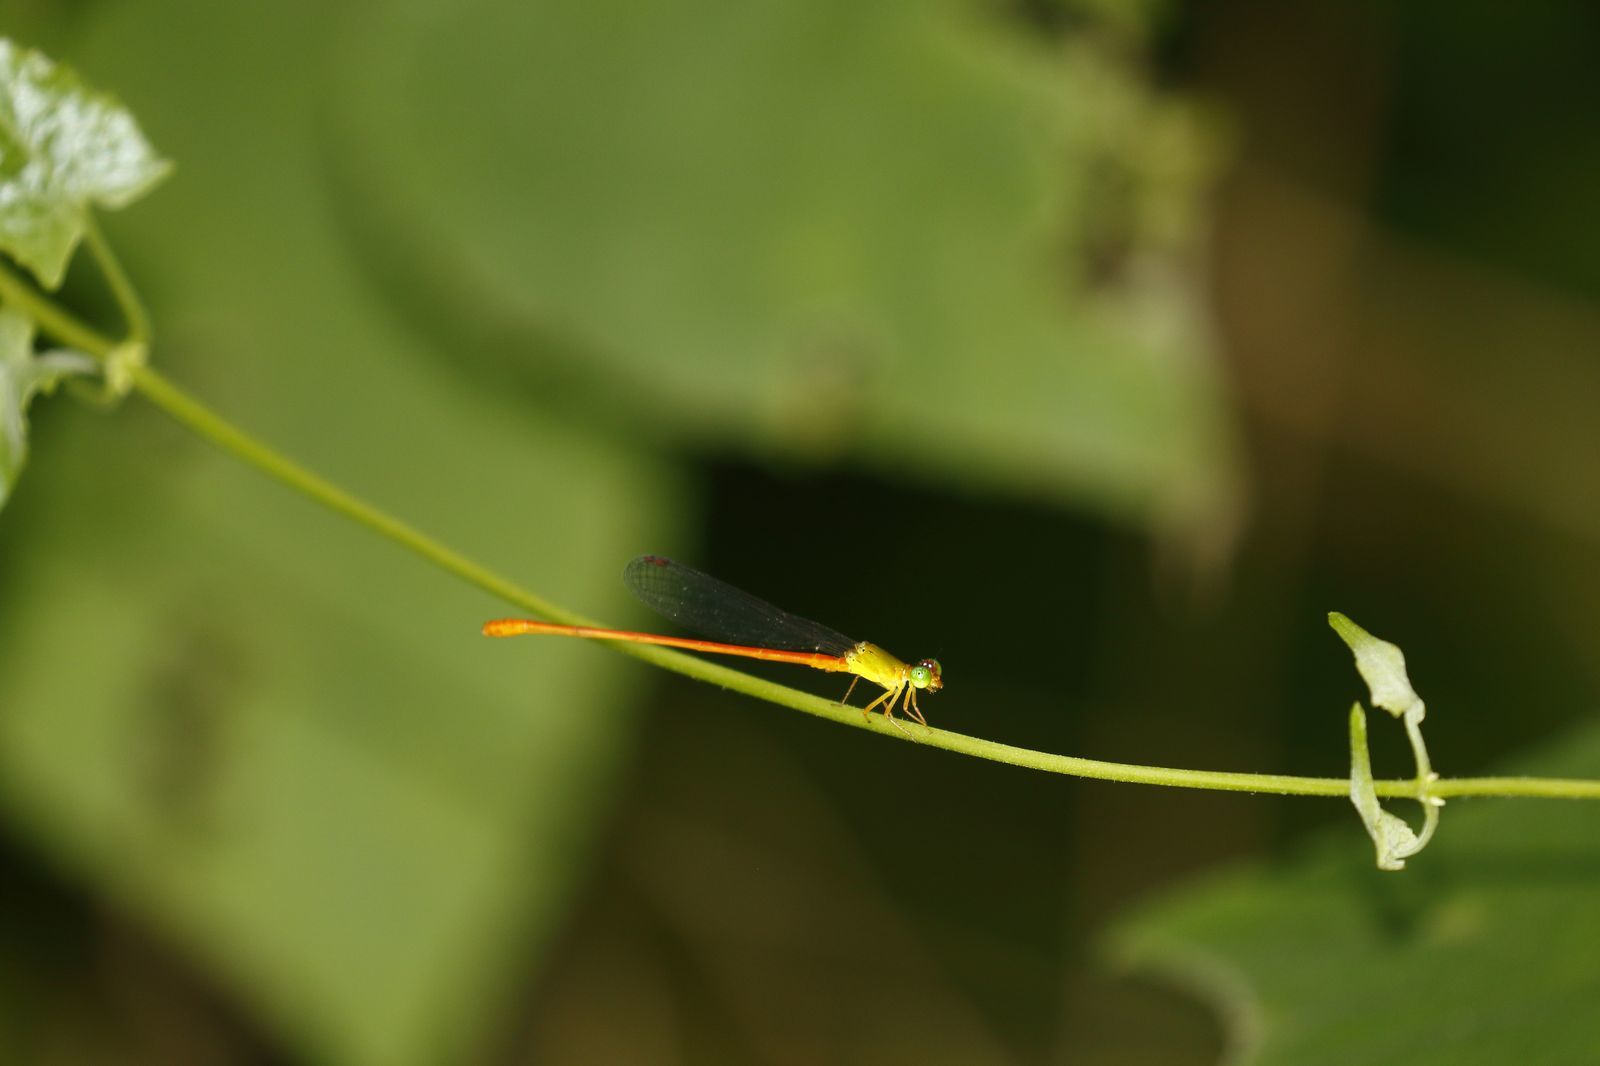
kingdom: Animalia
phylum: Arthropoda
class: Insecta
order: Odonata
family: Coenagrionidae
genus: Ceriagrion
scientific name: Ceriagrion auranticum
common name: Orange-tailed sprite
